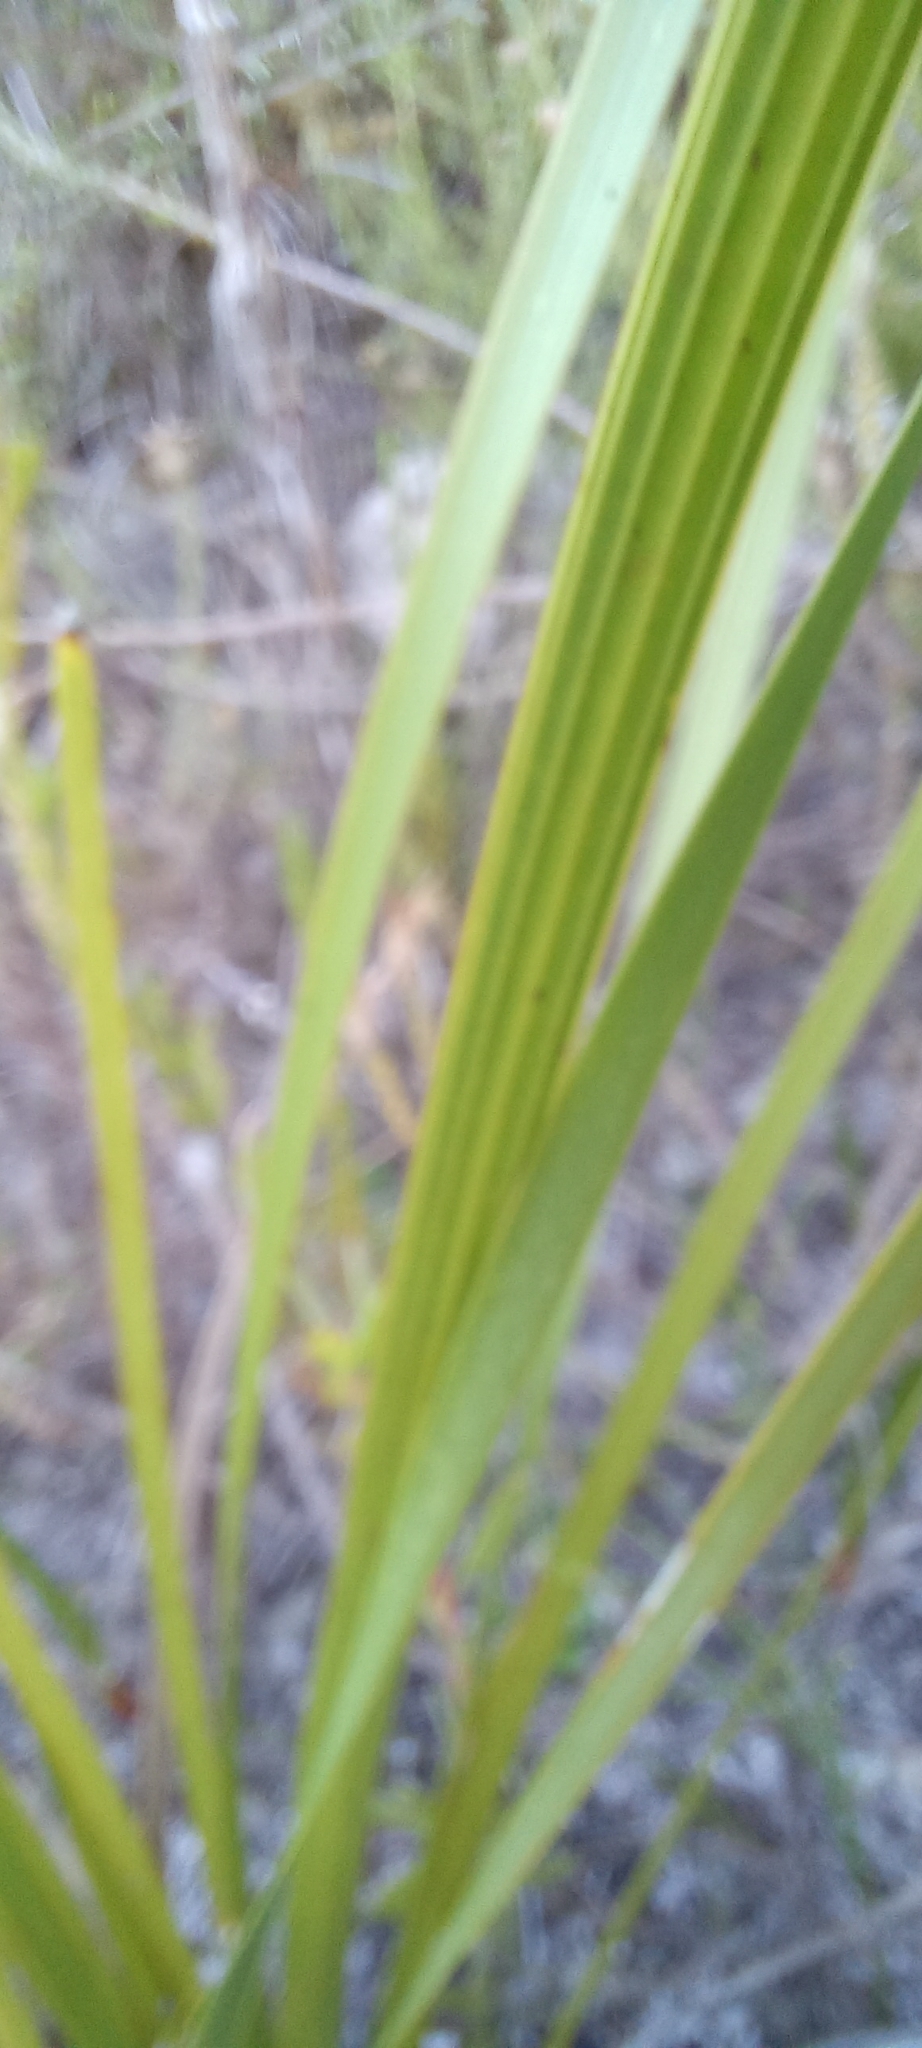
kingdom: Plantae
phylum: Tracheophyta
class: Liliopsida
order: Asparagales
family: Iridaceae
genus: Bobartia
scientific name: Bobartia gladiata
